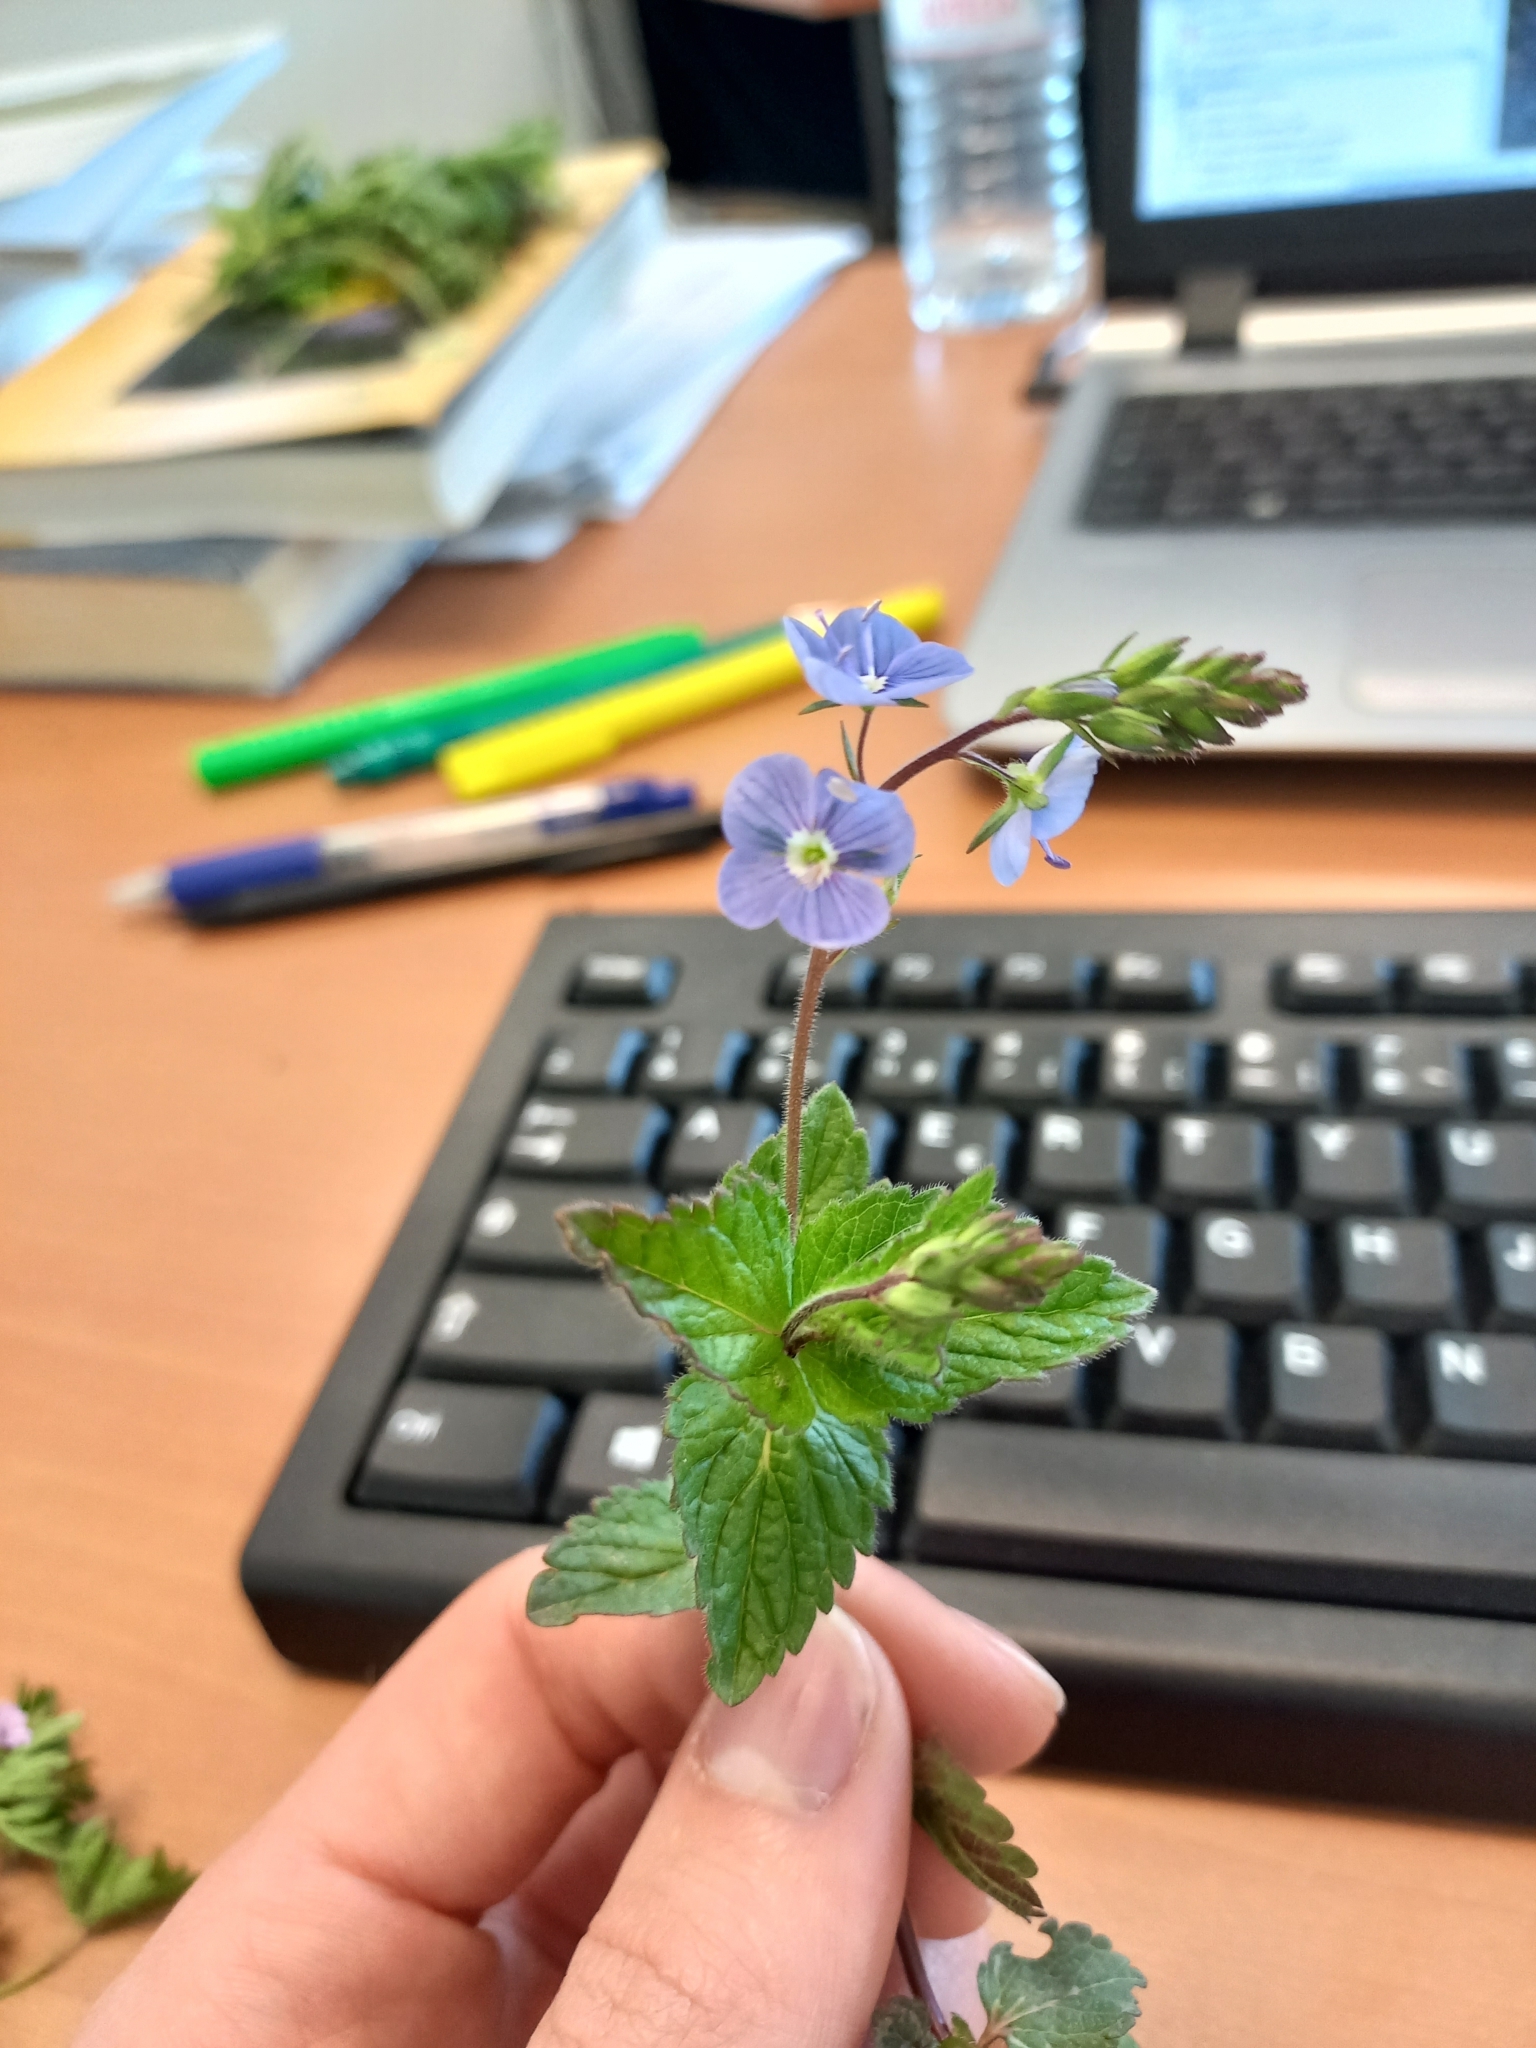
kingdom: Plantae
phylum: Tracheophyta
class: Magnoliopsida
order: Lamiales
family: Plantaginaceae
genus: Veronica
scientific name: Veronica chamaedrys
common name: Germander speedwell
